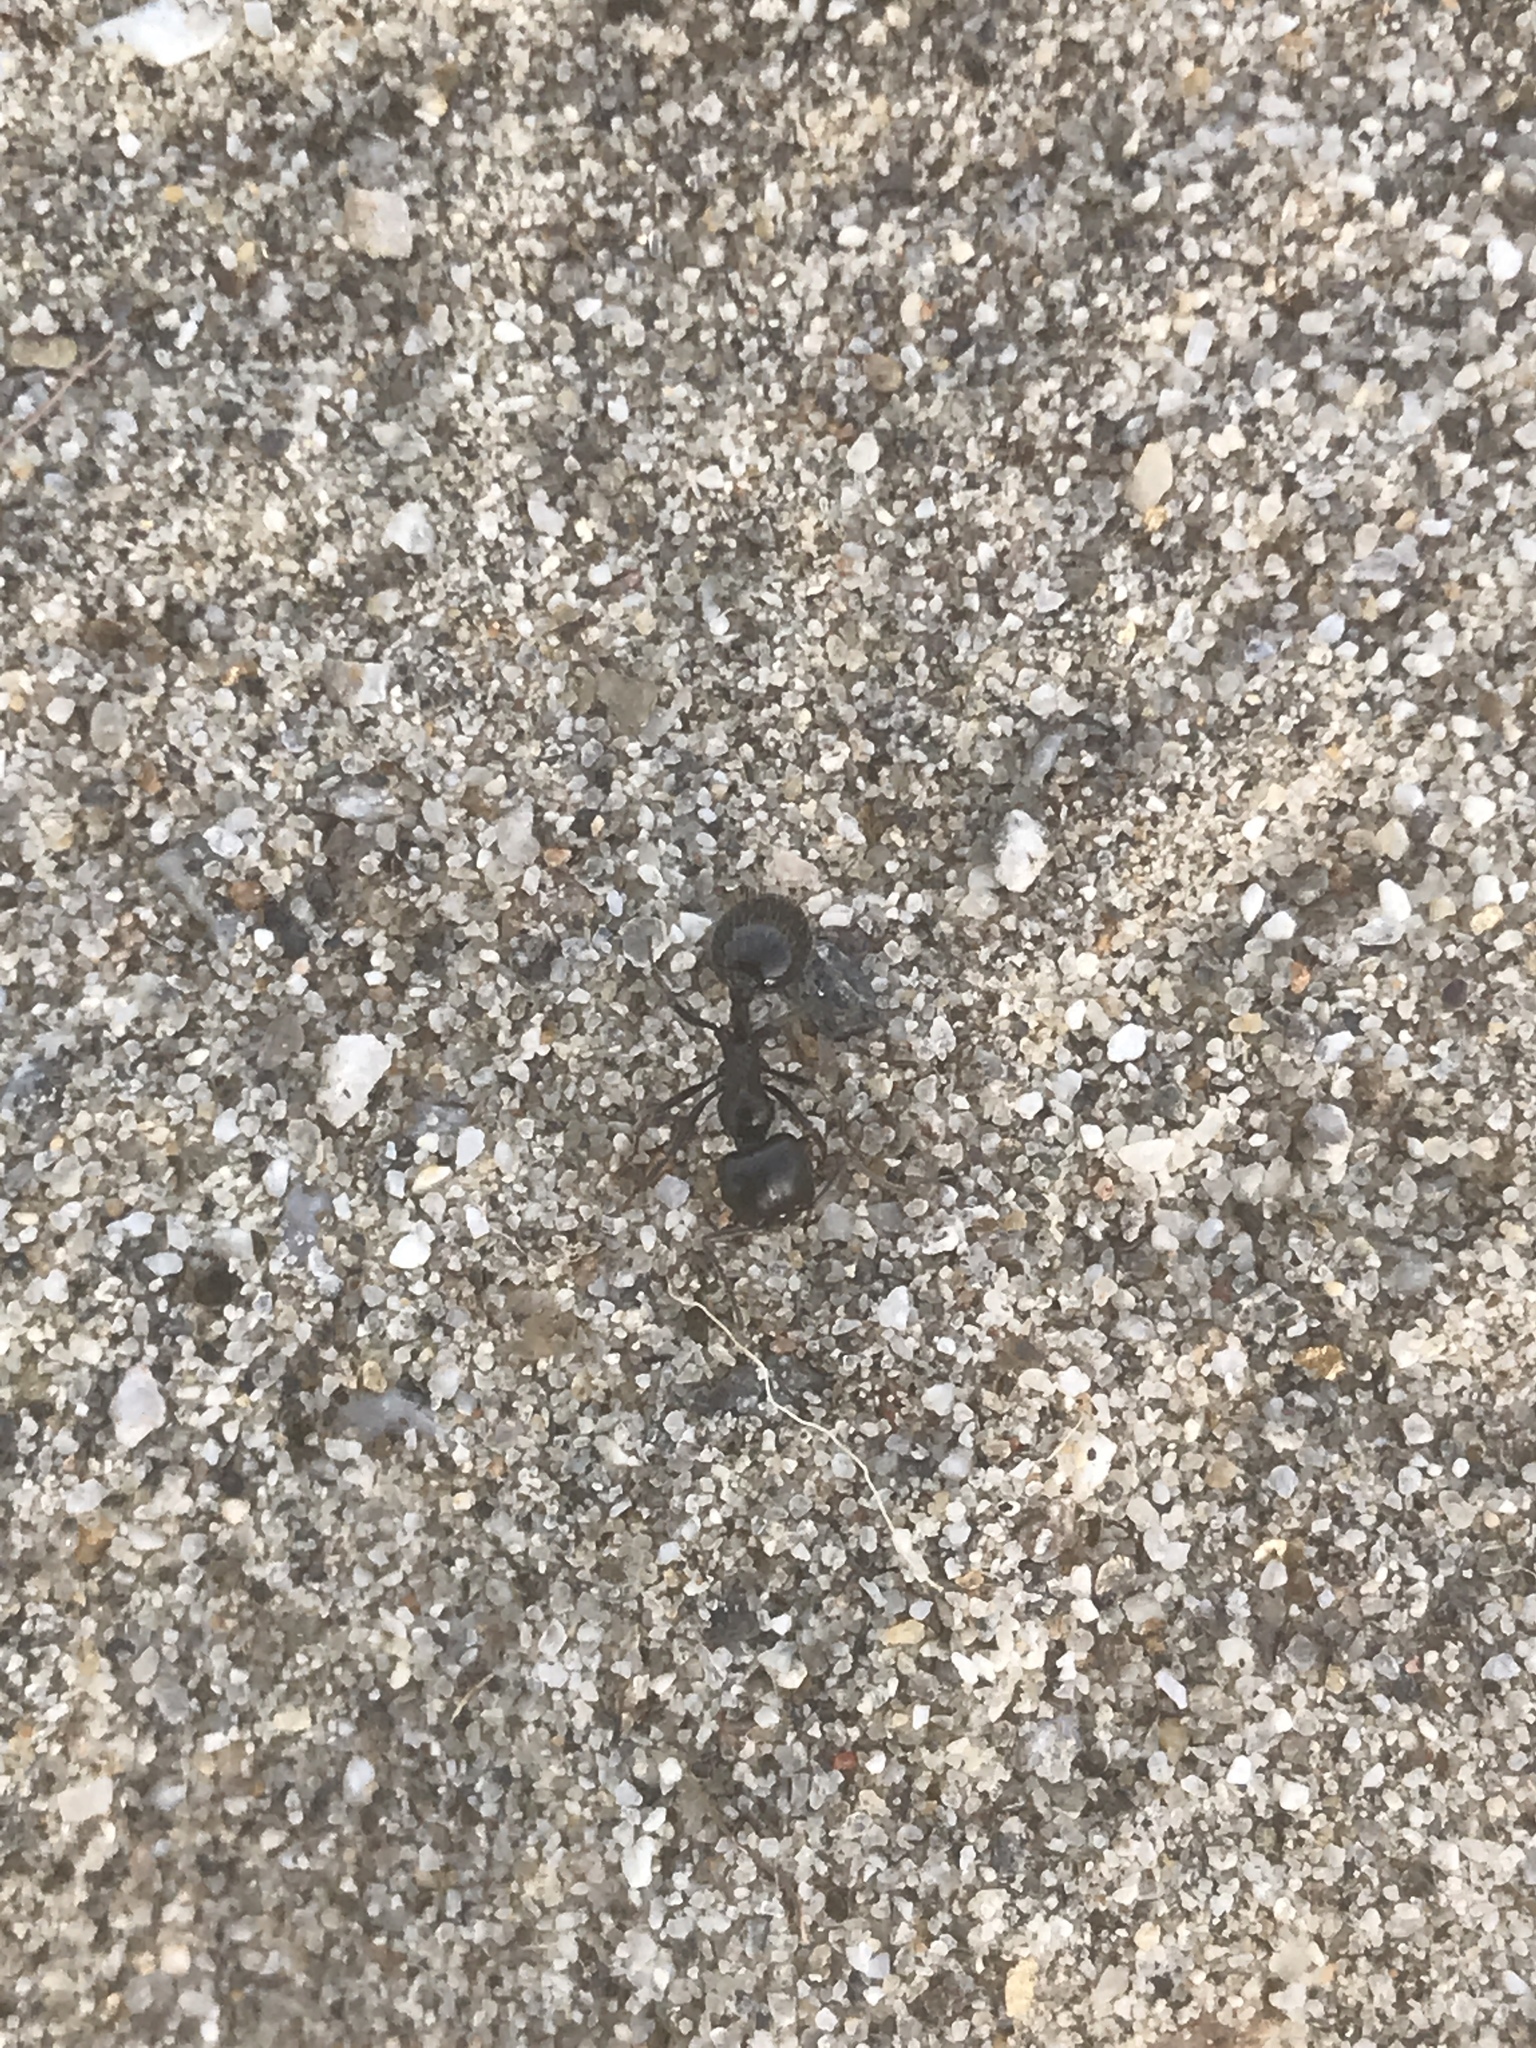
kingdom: Animalia
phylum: Arthropoda
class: Insecta
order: Hymenoptera
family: Formicidae
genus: Messor
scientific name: Messor pergandei
